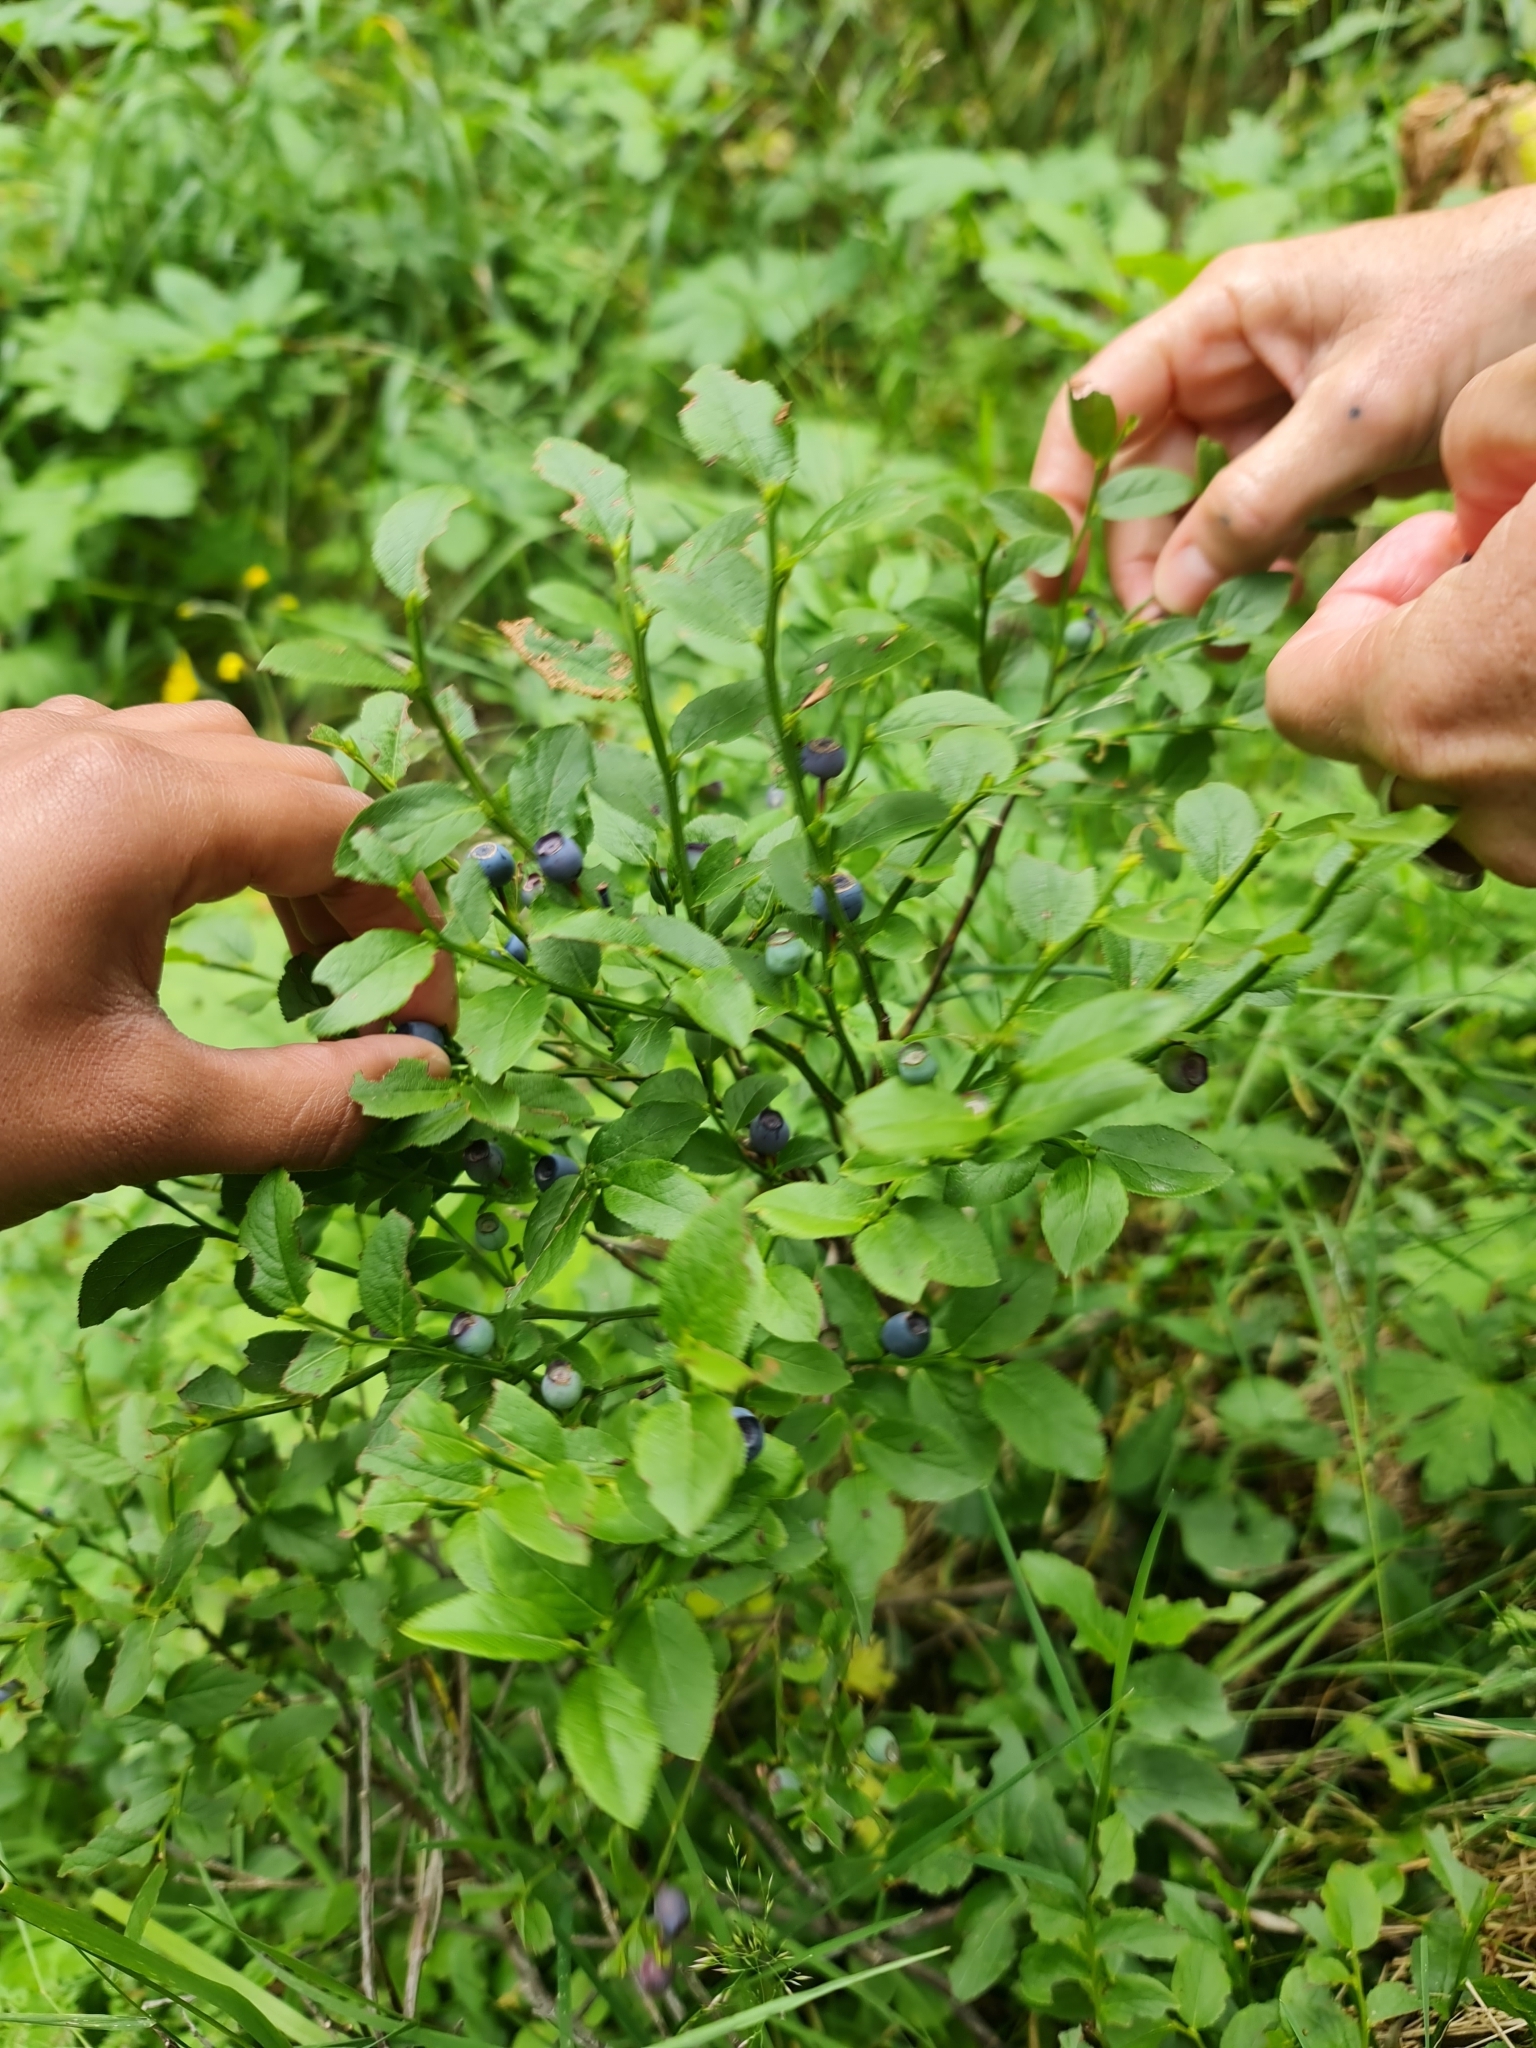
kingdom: Plantae
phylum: Tracheophyta
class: Magnoliopsida
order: Ericales
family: Ericaceae
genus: Vaccinium
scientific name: Vaccinium myrtillus
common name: Bilberry
